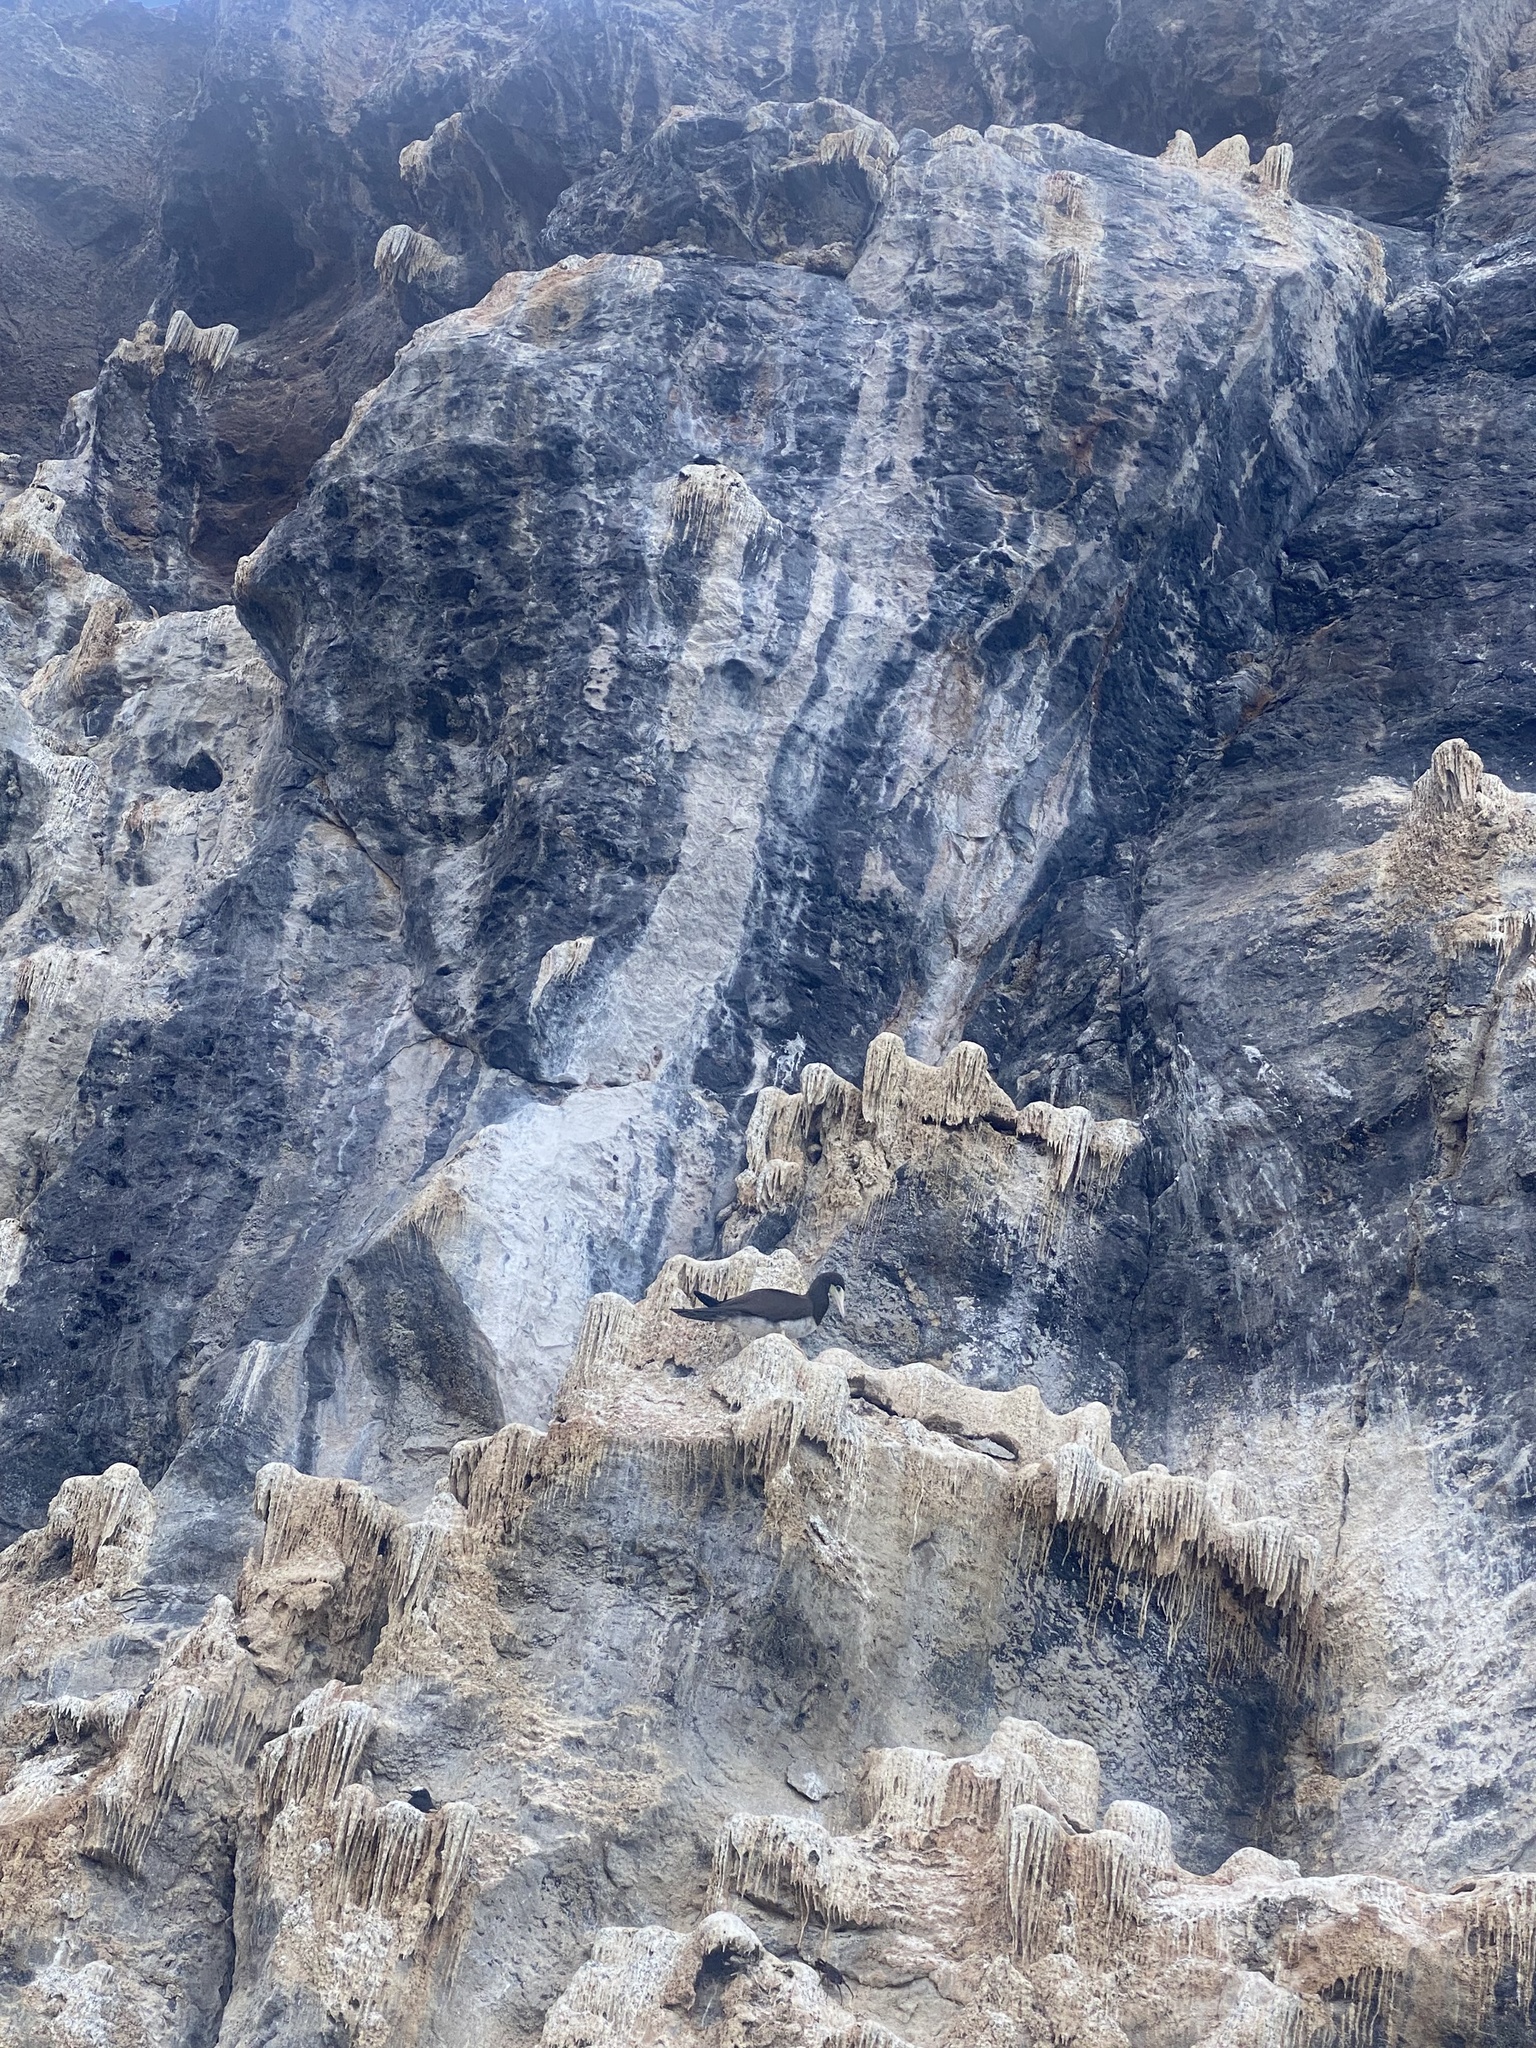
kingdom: Animalia
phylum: Chordata
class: Aves
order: Suliformes
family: Sulidae
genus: Sula
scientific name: Sula leucogaster
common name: Brown booby
